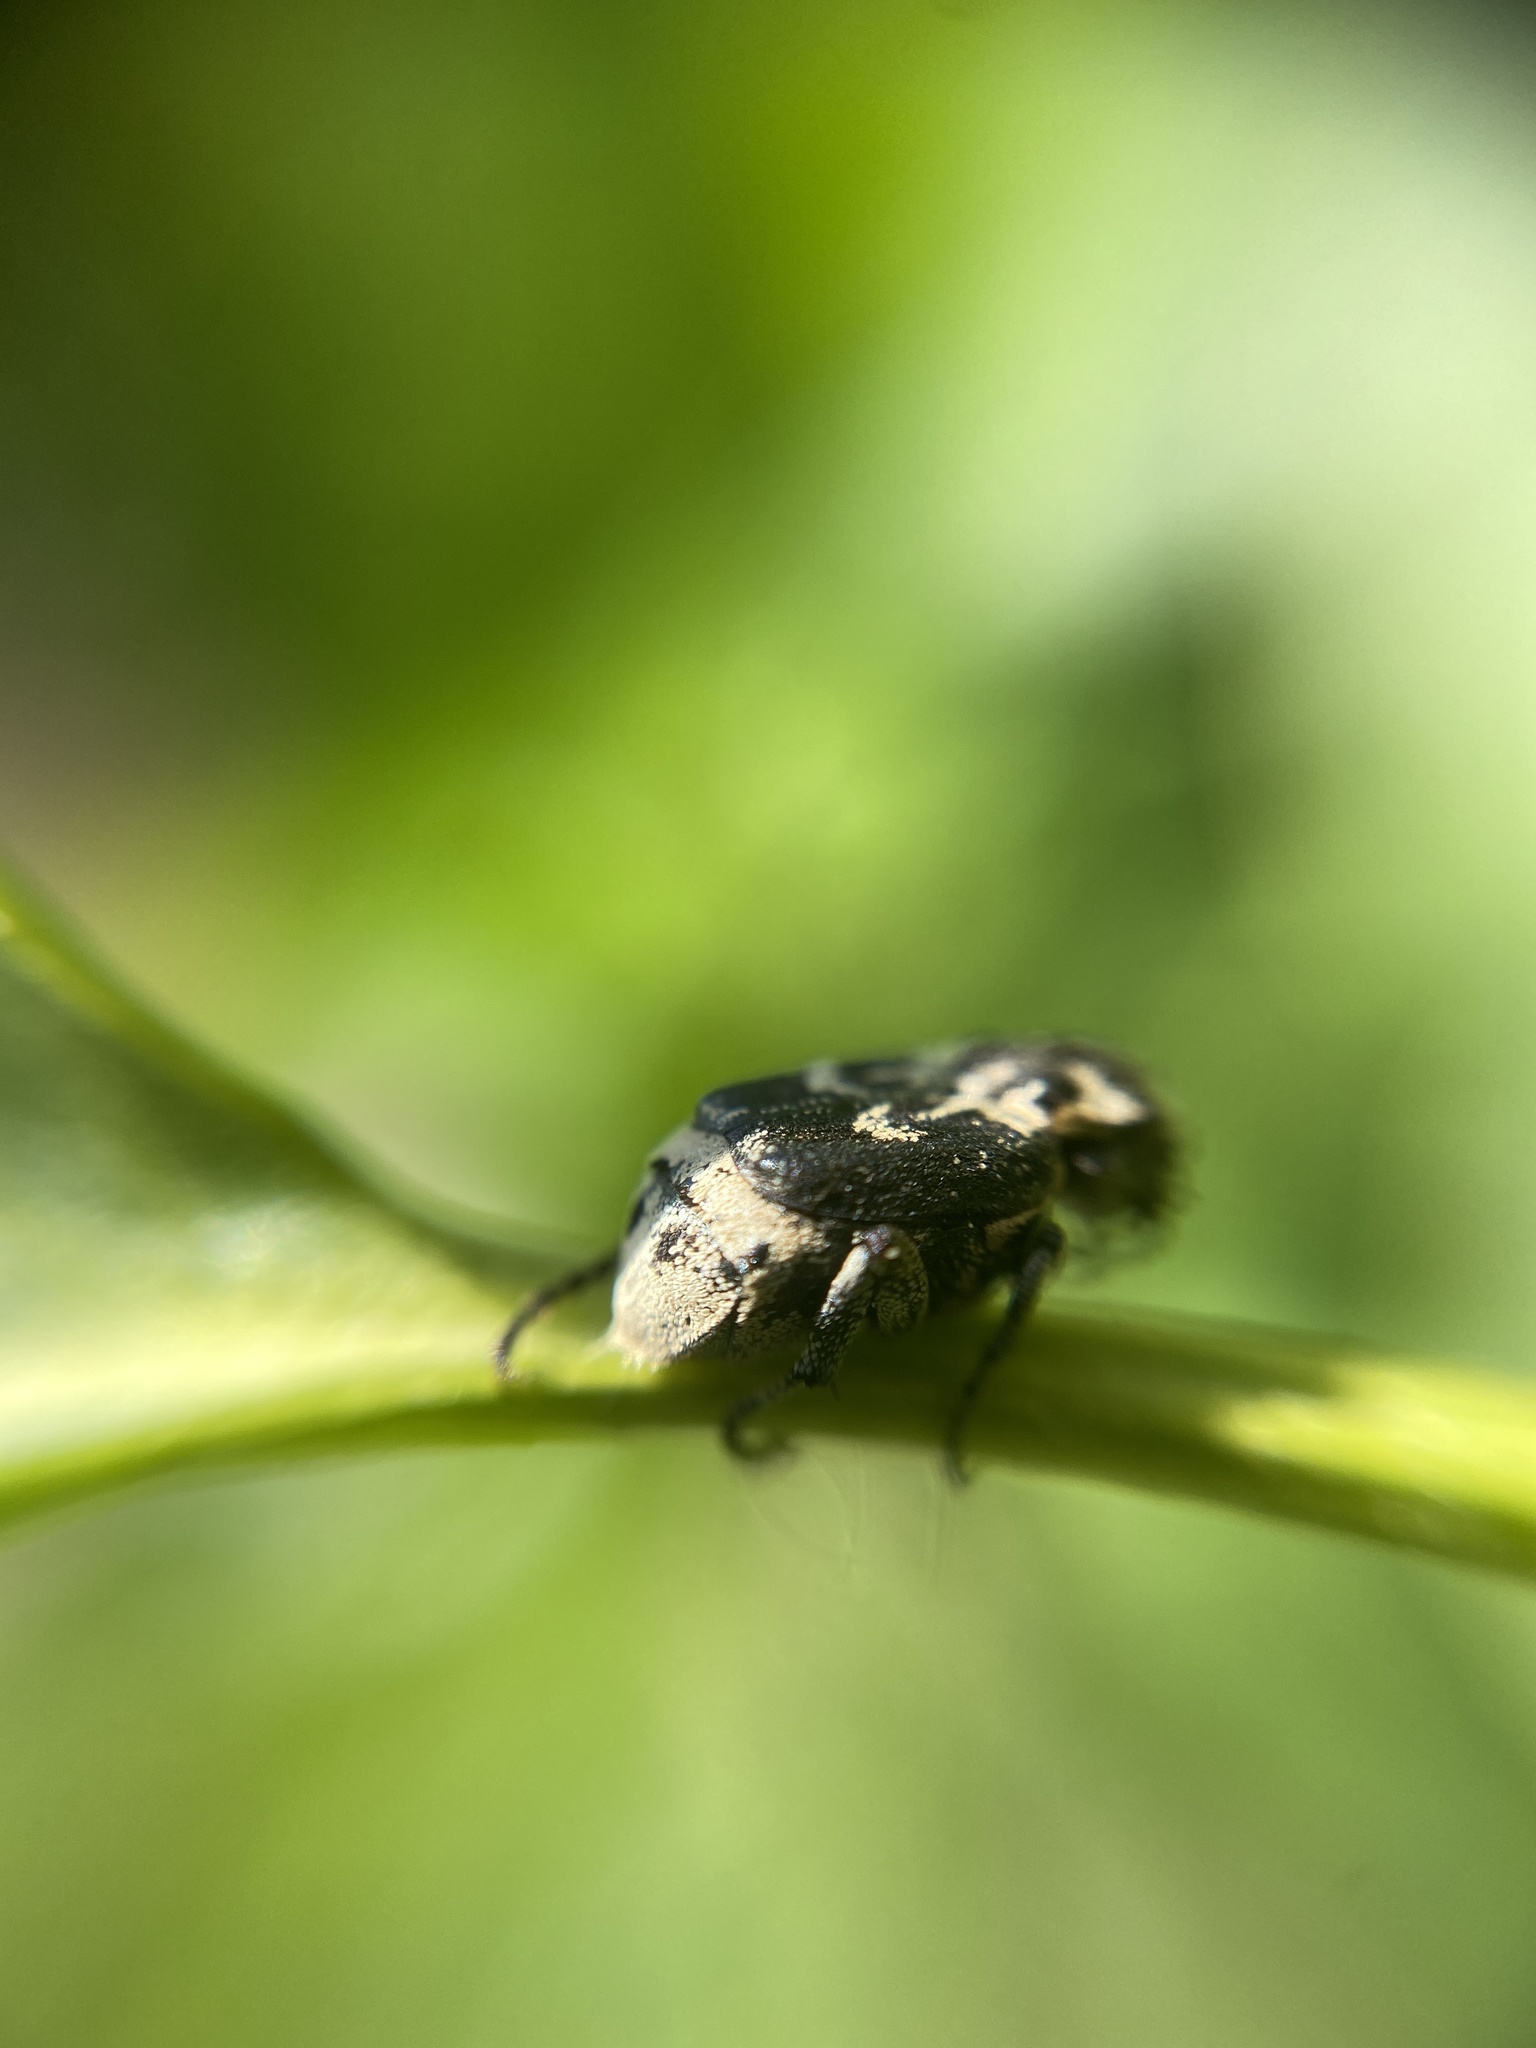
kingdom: Animalia
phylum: Arthropoda
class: Insecta
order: Coleoptera
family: Scarabaeidae
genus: Valgus
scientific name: Valgus hemipterus
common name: Bug flower chafer
